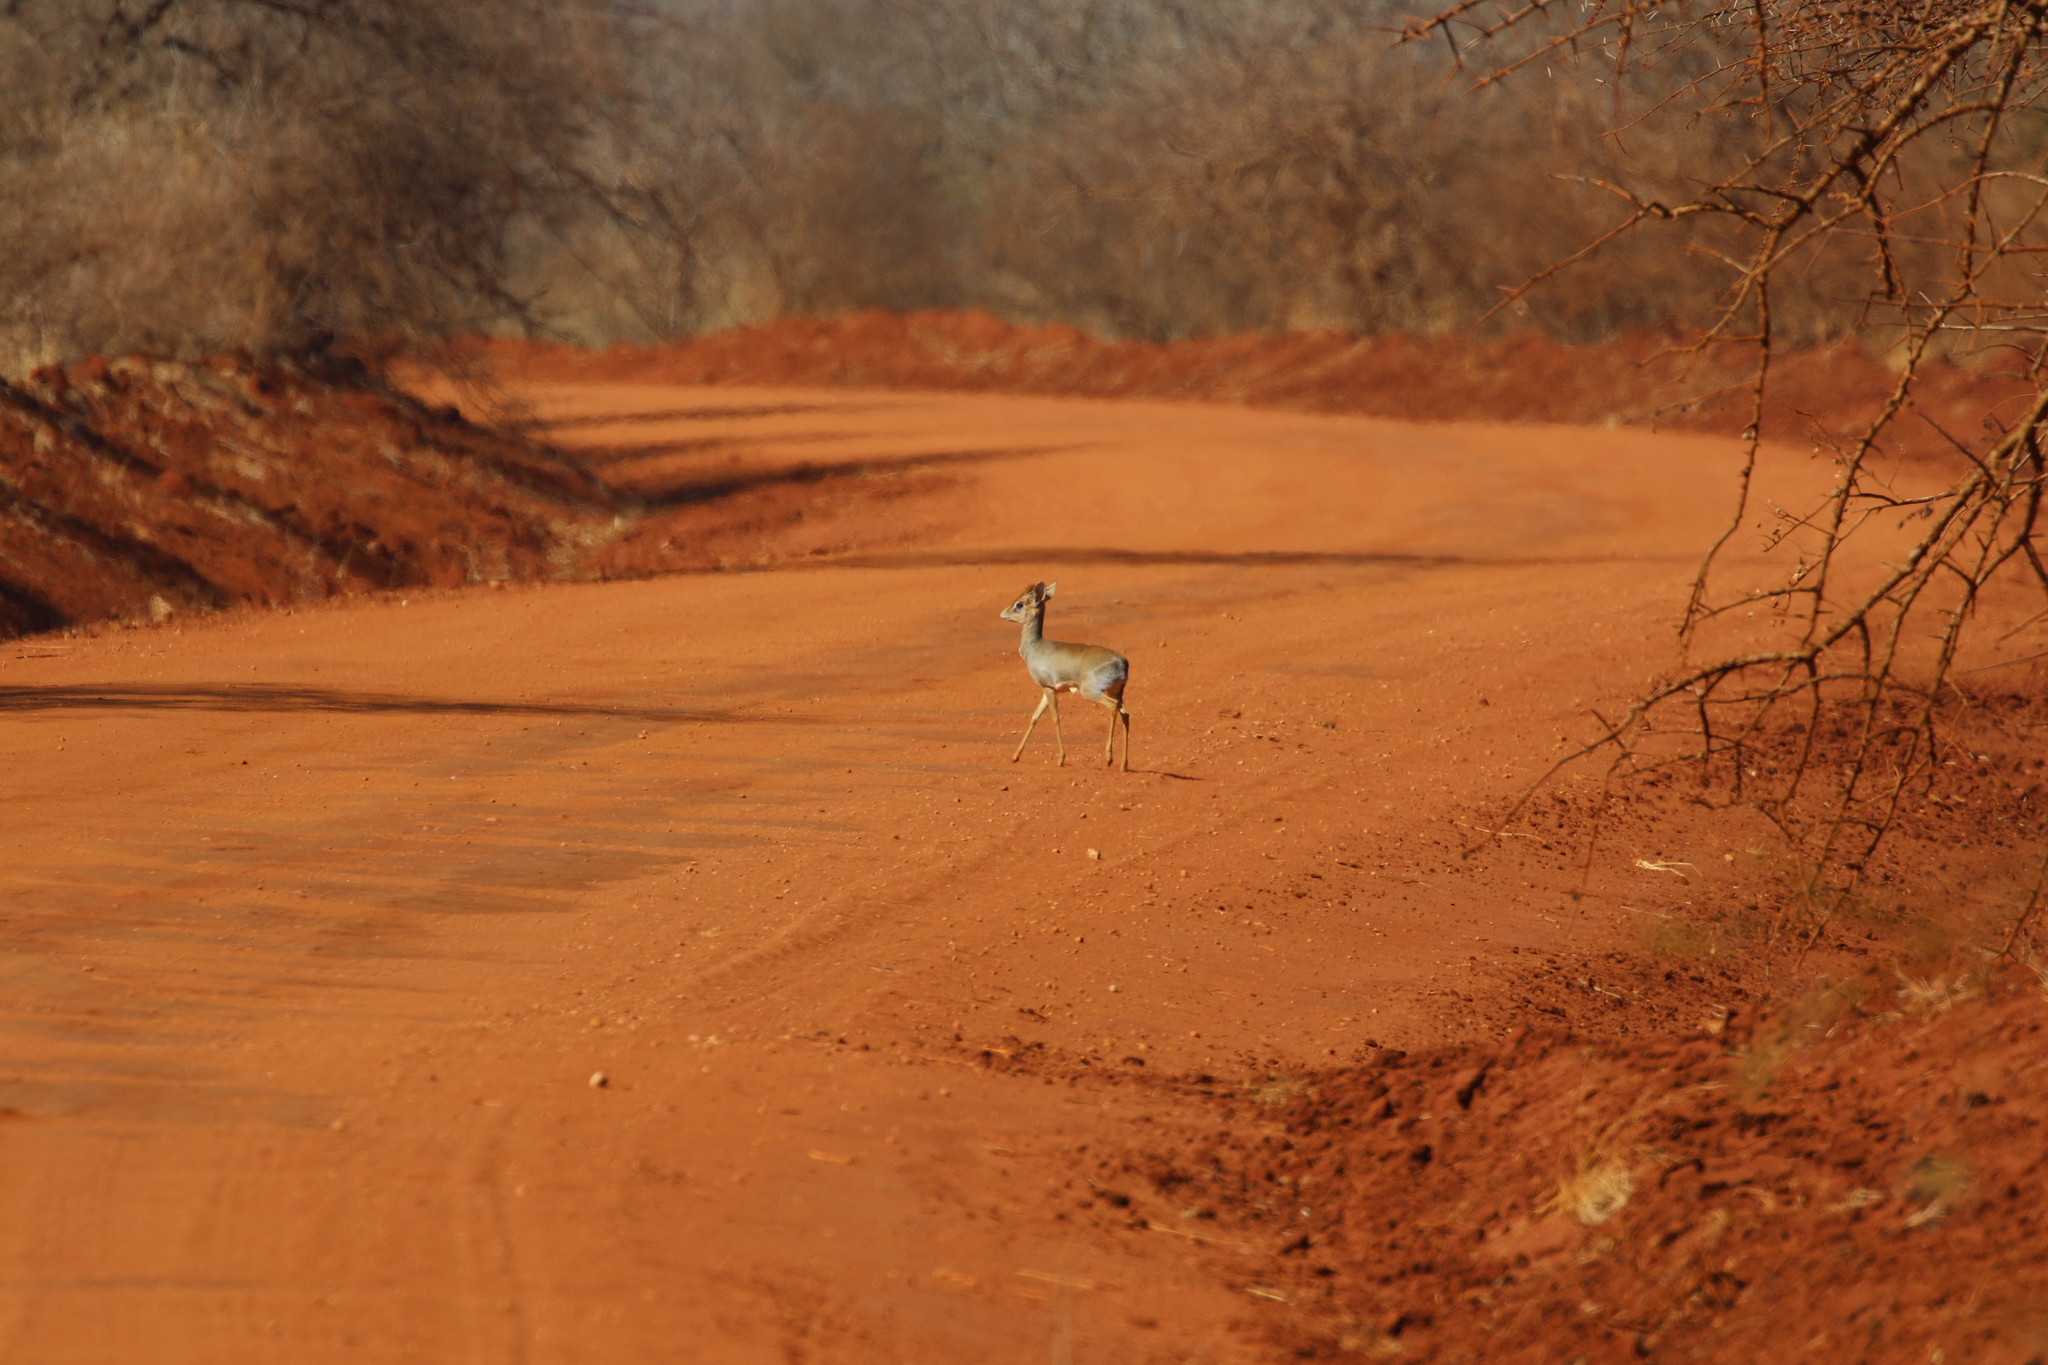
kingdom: Animalia
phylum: Chordata
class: Mammalia
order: Artiodactyla
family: Bovidae
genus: Madoqua
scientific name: Madoqua
